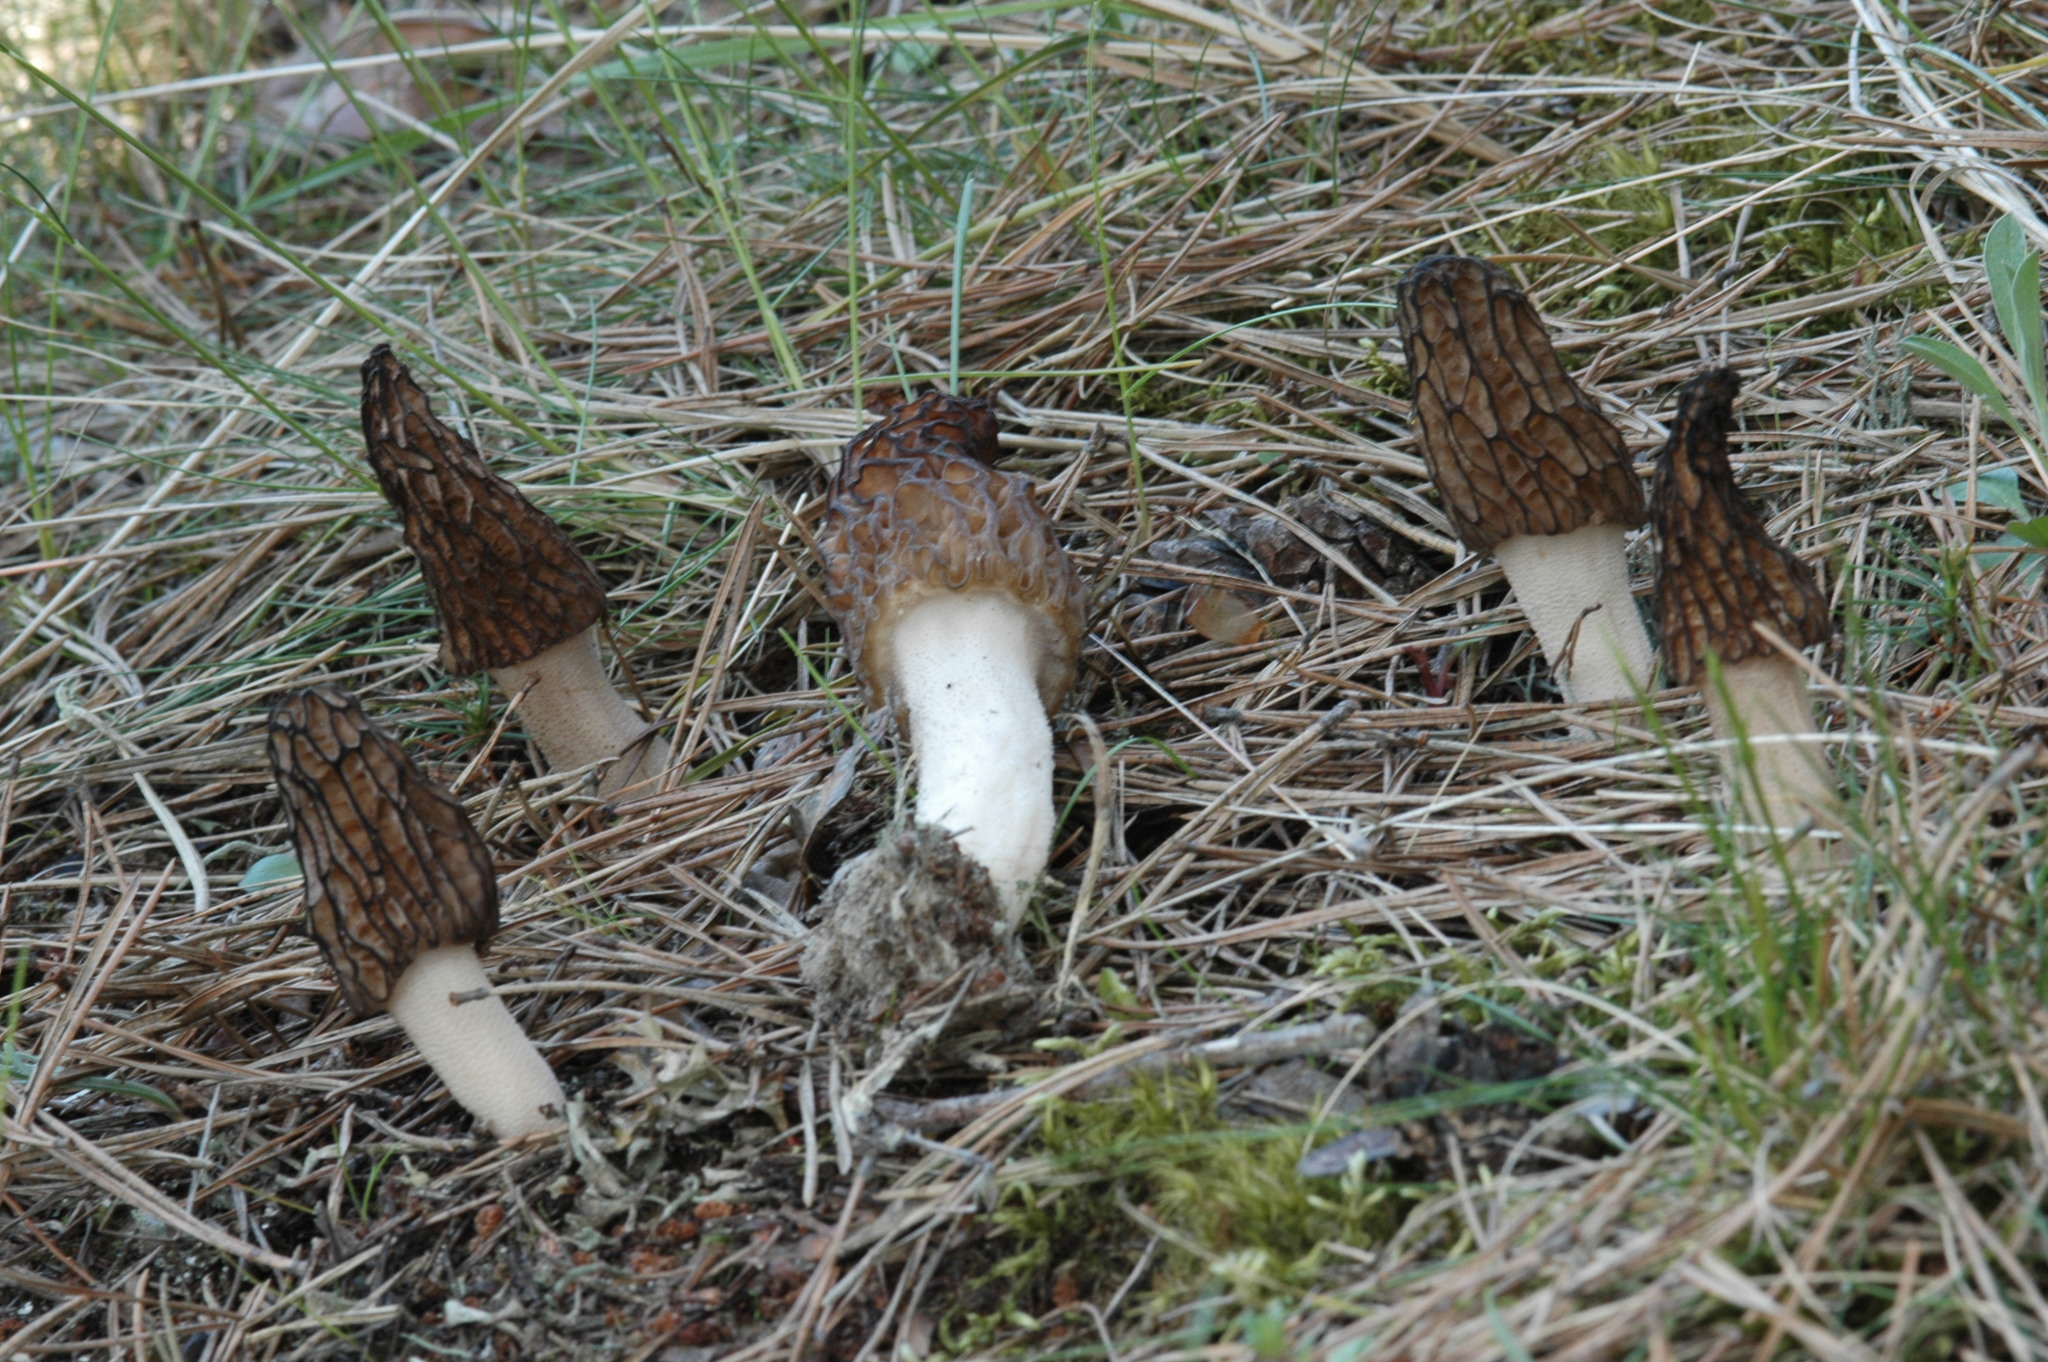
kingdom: Fungi
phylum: Ascomycota
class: Pezizomycetes
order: Pezizales
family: Morchellaceae
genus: Morchella
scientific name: Morchella
